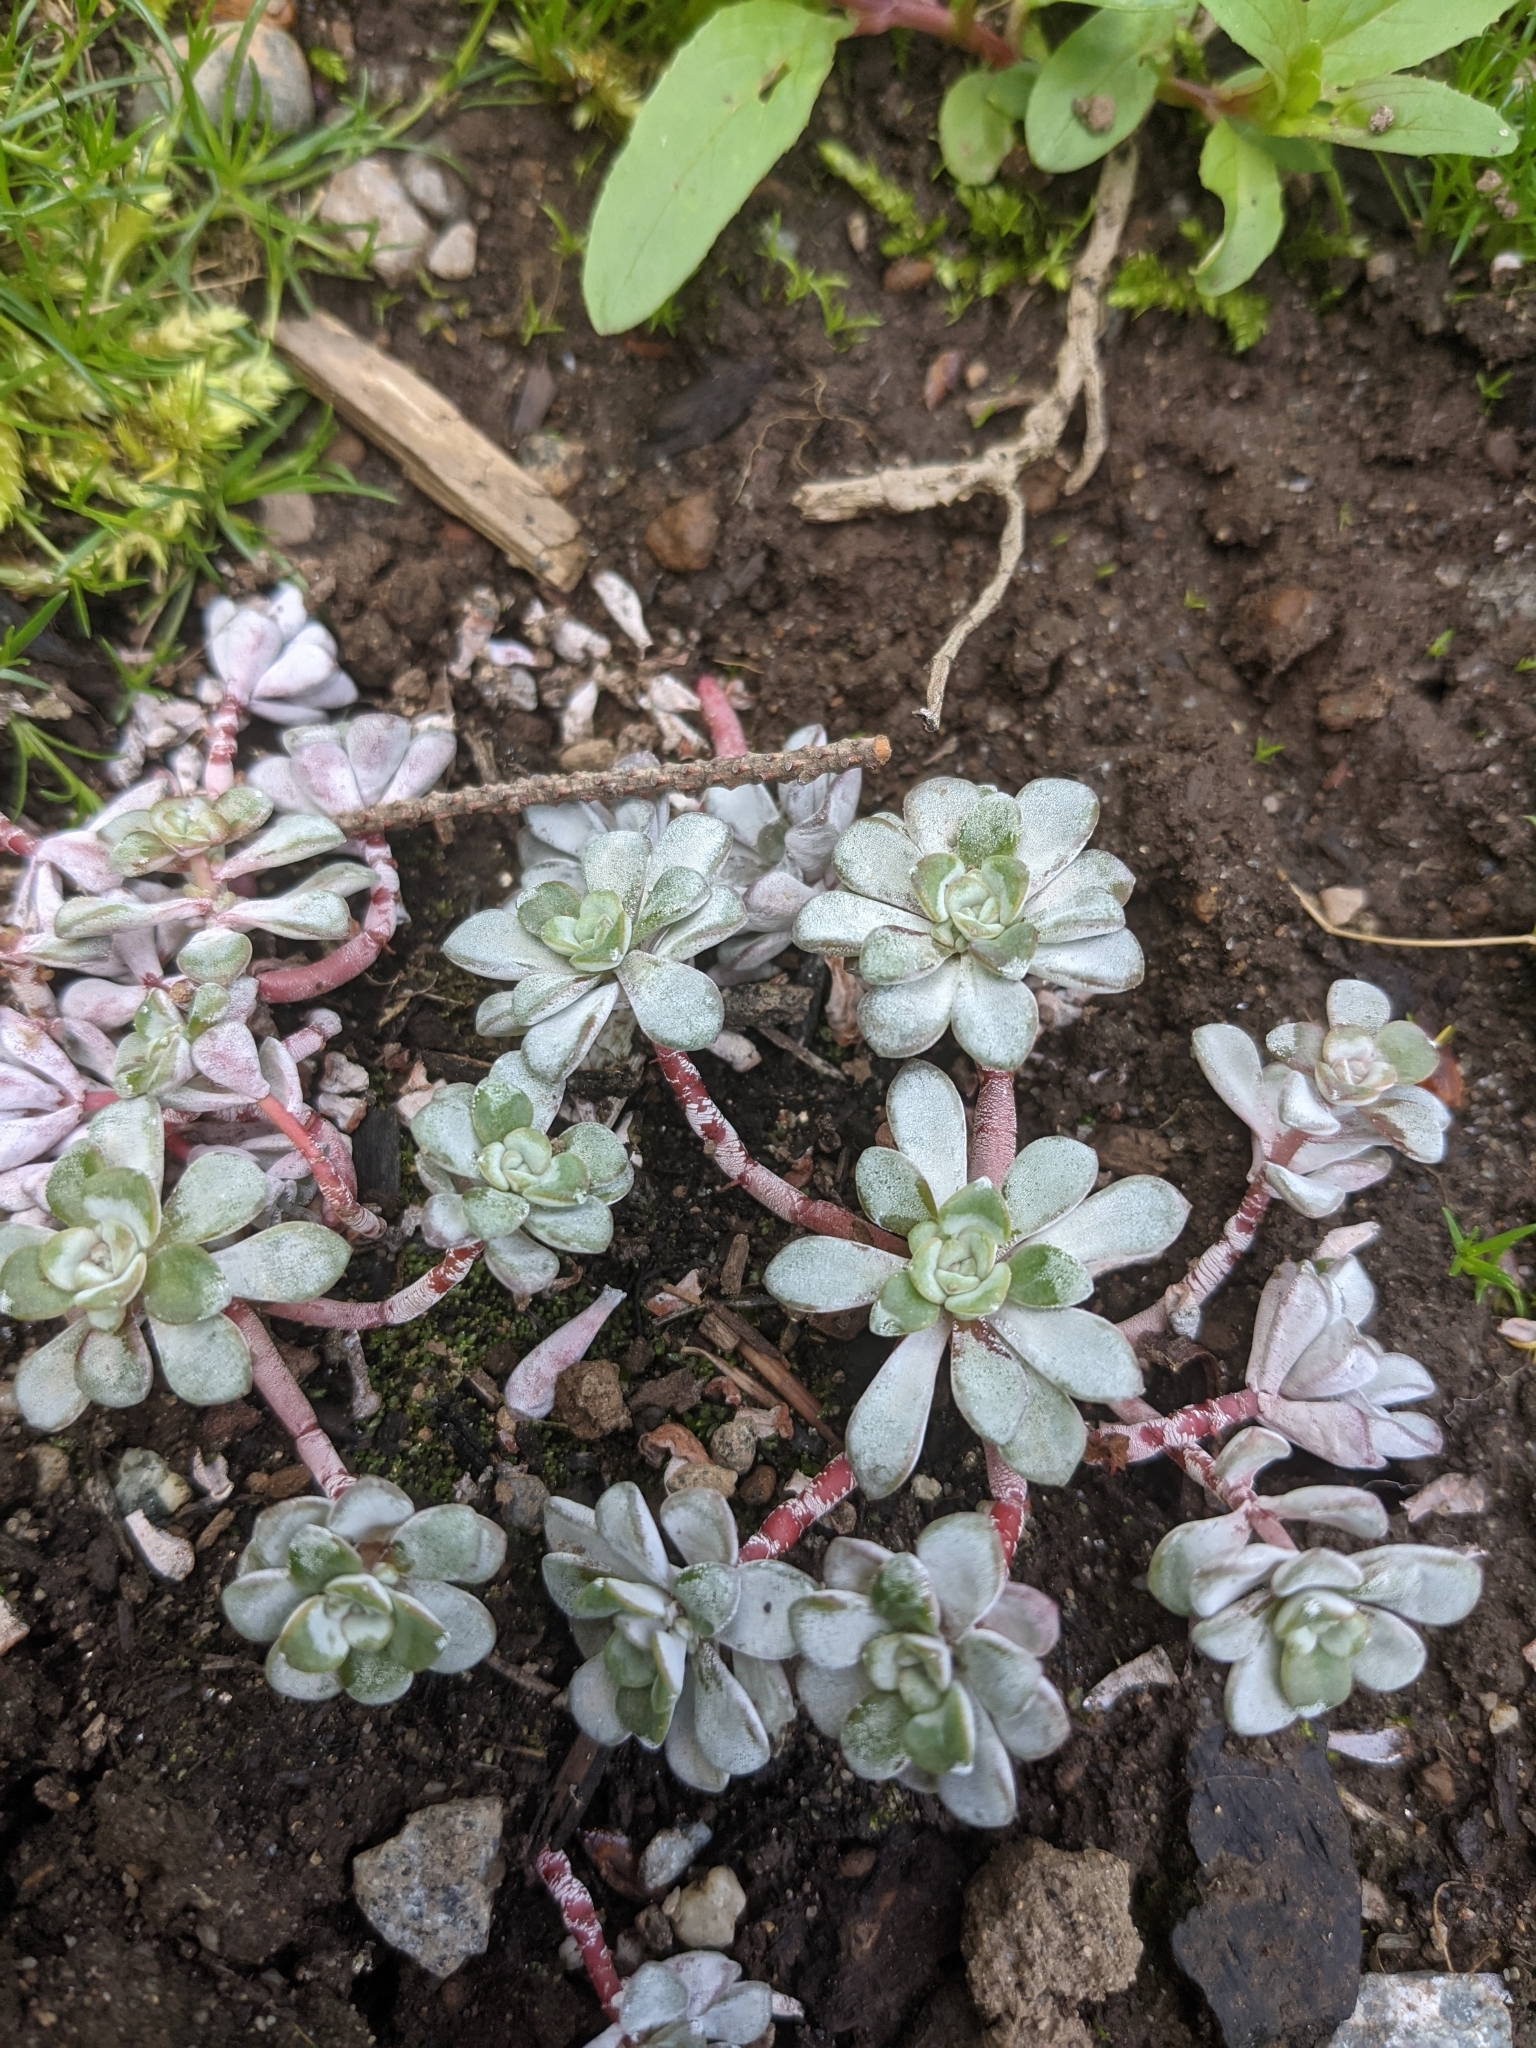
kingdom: Plantae
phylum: Tracheophyta
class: Magnoliopsida
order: Saxifragales
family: Crassulaceae
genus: Sedum
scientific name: Sedum spathulifolium
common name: Colorado stonecrop
